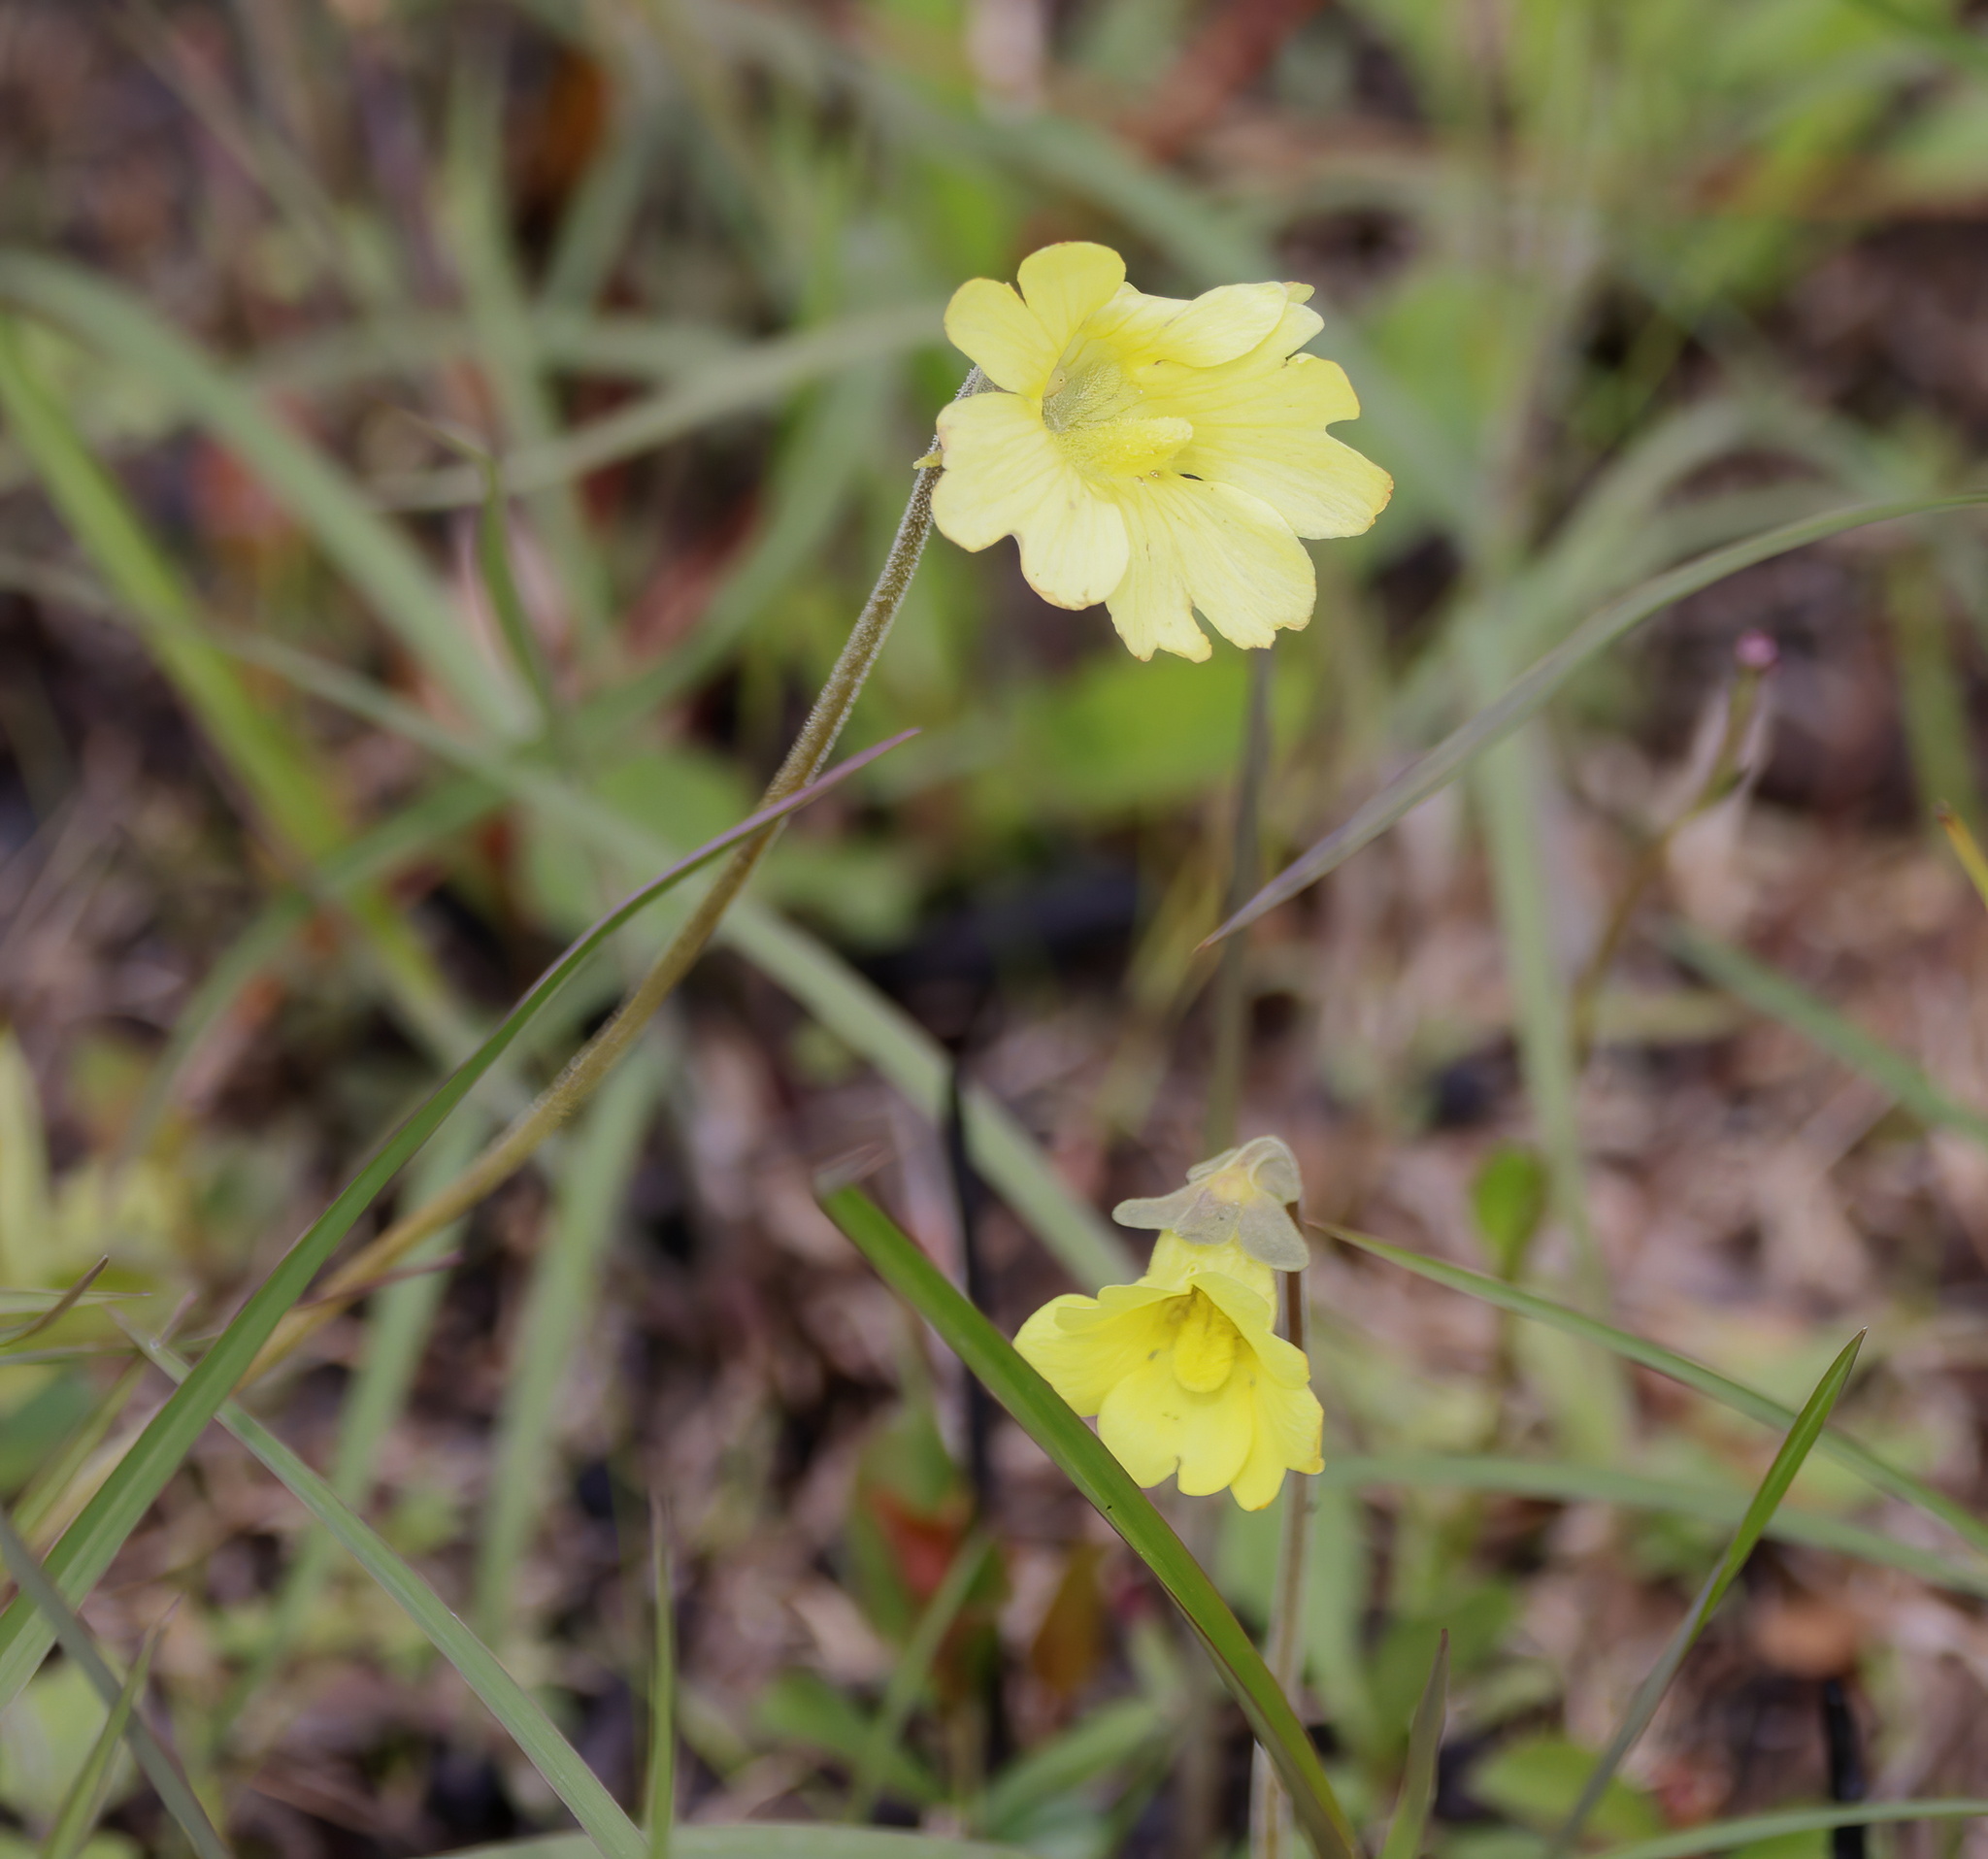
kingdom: Plantae
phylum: Tracheophyta
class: Magnoliopsida
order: Lamiales
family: Lentibulariaceae
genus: Pinguicula
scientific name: Pinguicula lutea
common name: Yellow butterwort
